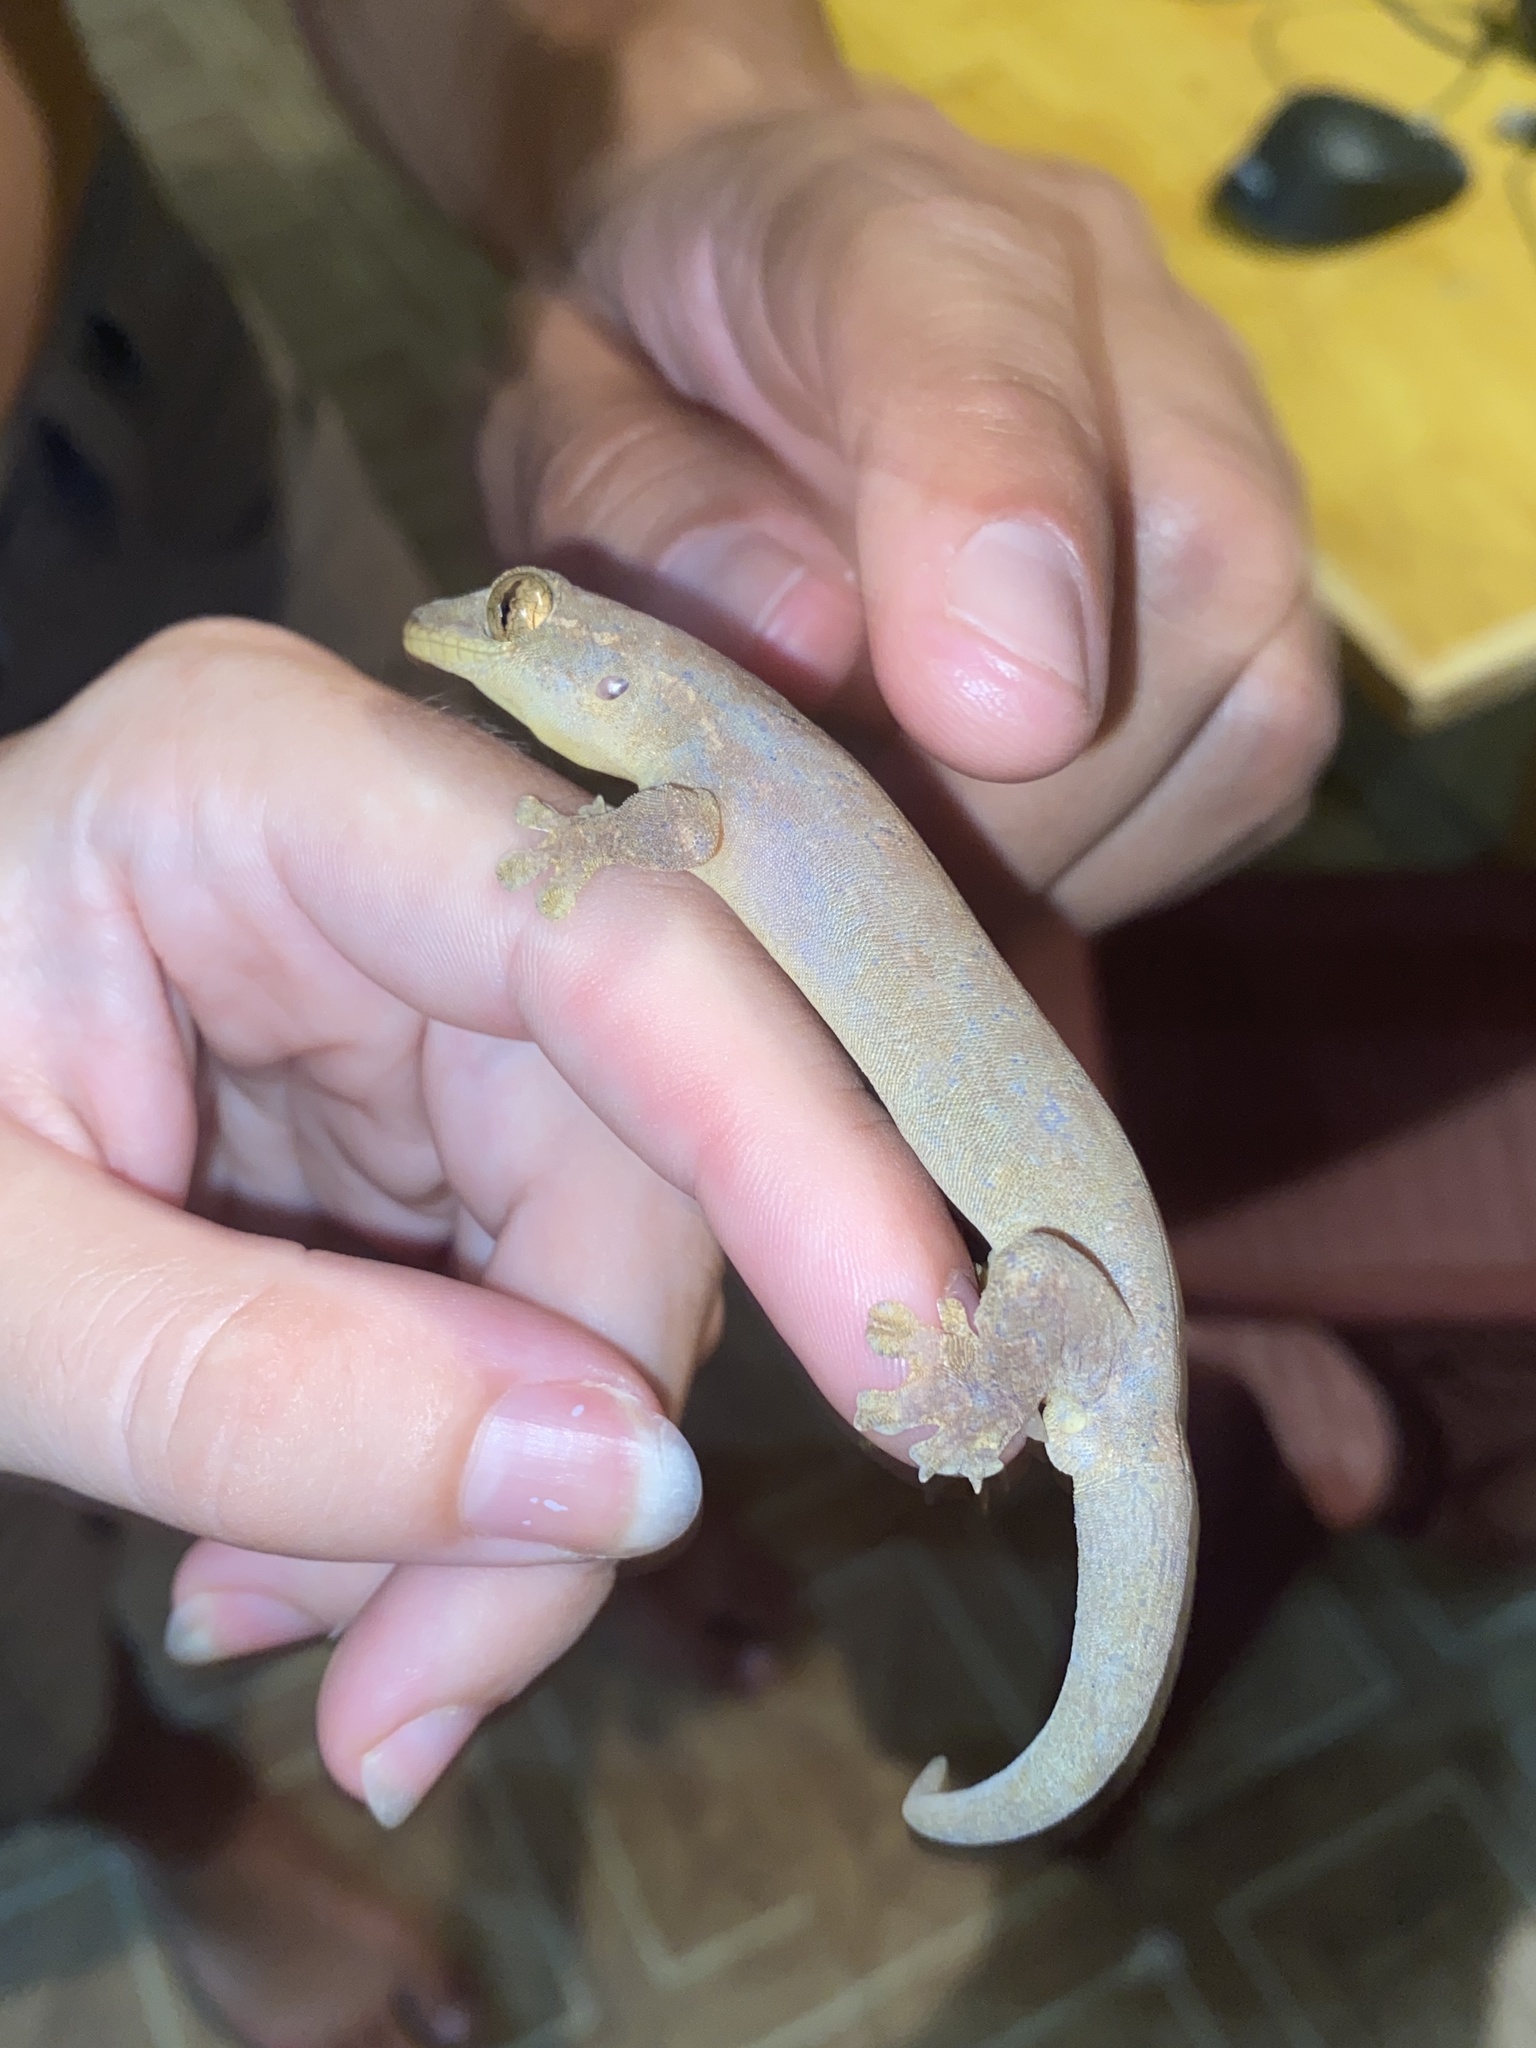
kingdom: Animalia
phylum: Chordata
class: Squamata
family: Phyllodactylidae
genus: Thecadactylus
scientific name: Thecadactylus rapicauda
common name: Turnip-tailed gecko
